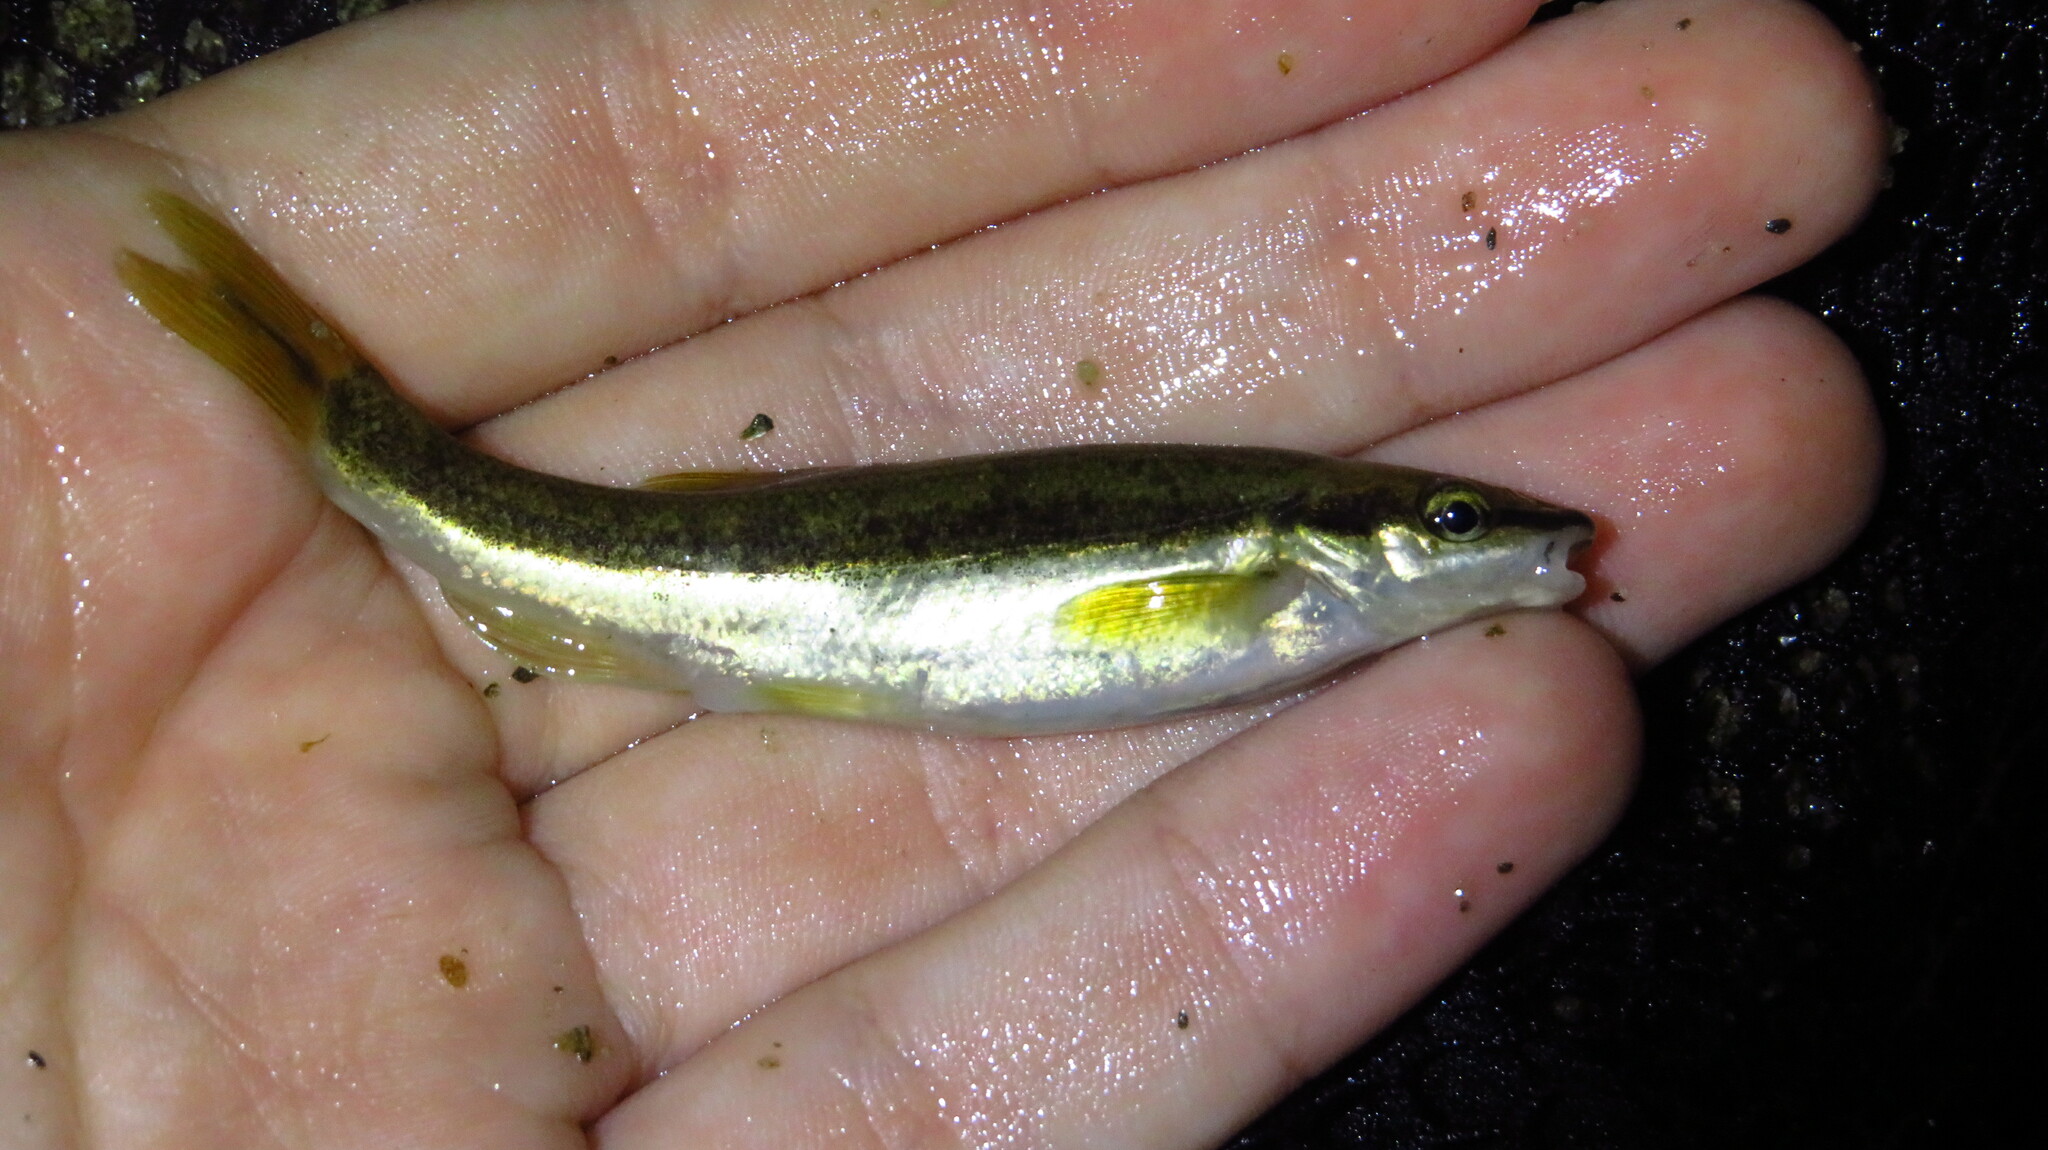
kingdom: Animalia
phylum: Chordata
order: Cypriniformes
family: Cyprinidae
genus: Rhinichthys
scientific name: Rhinichthys atratulus
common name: Eastern blacknose dace
